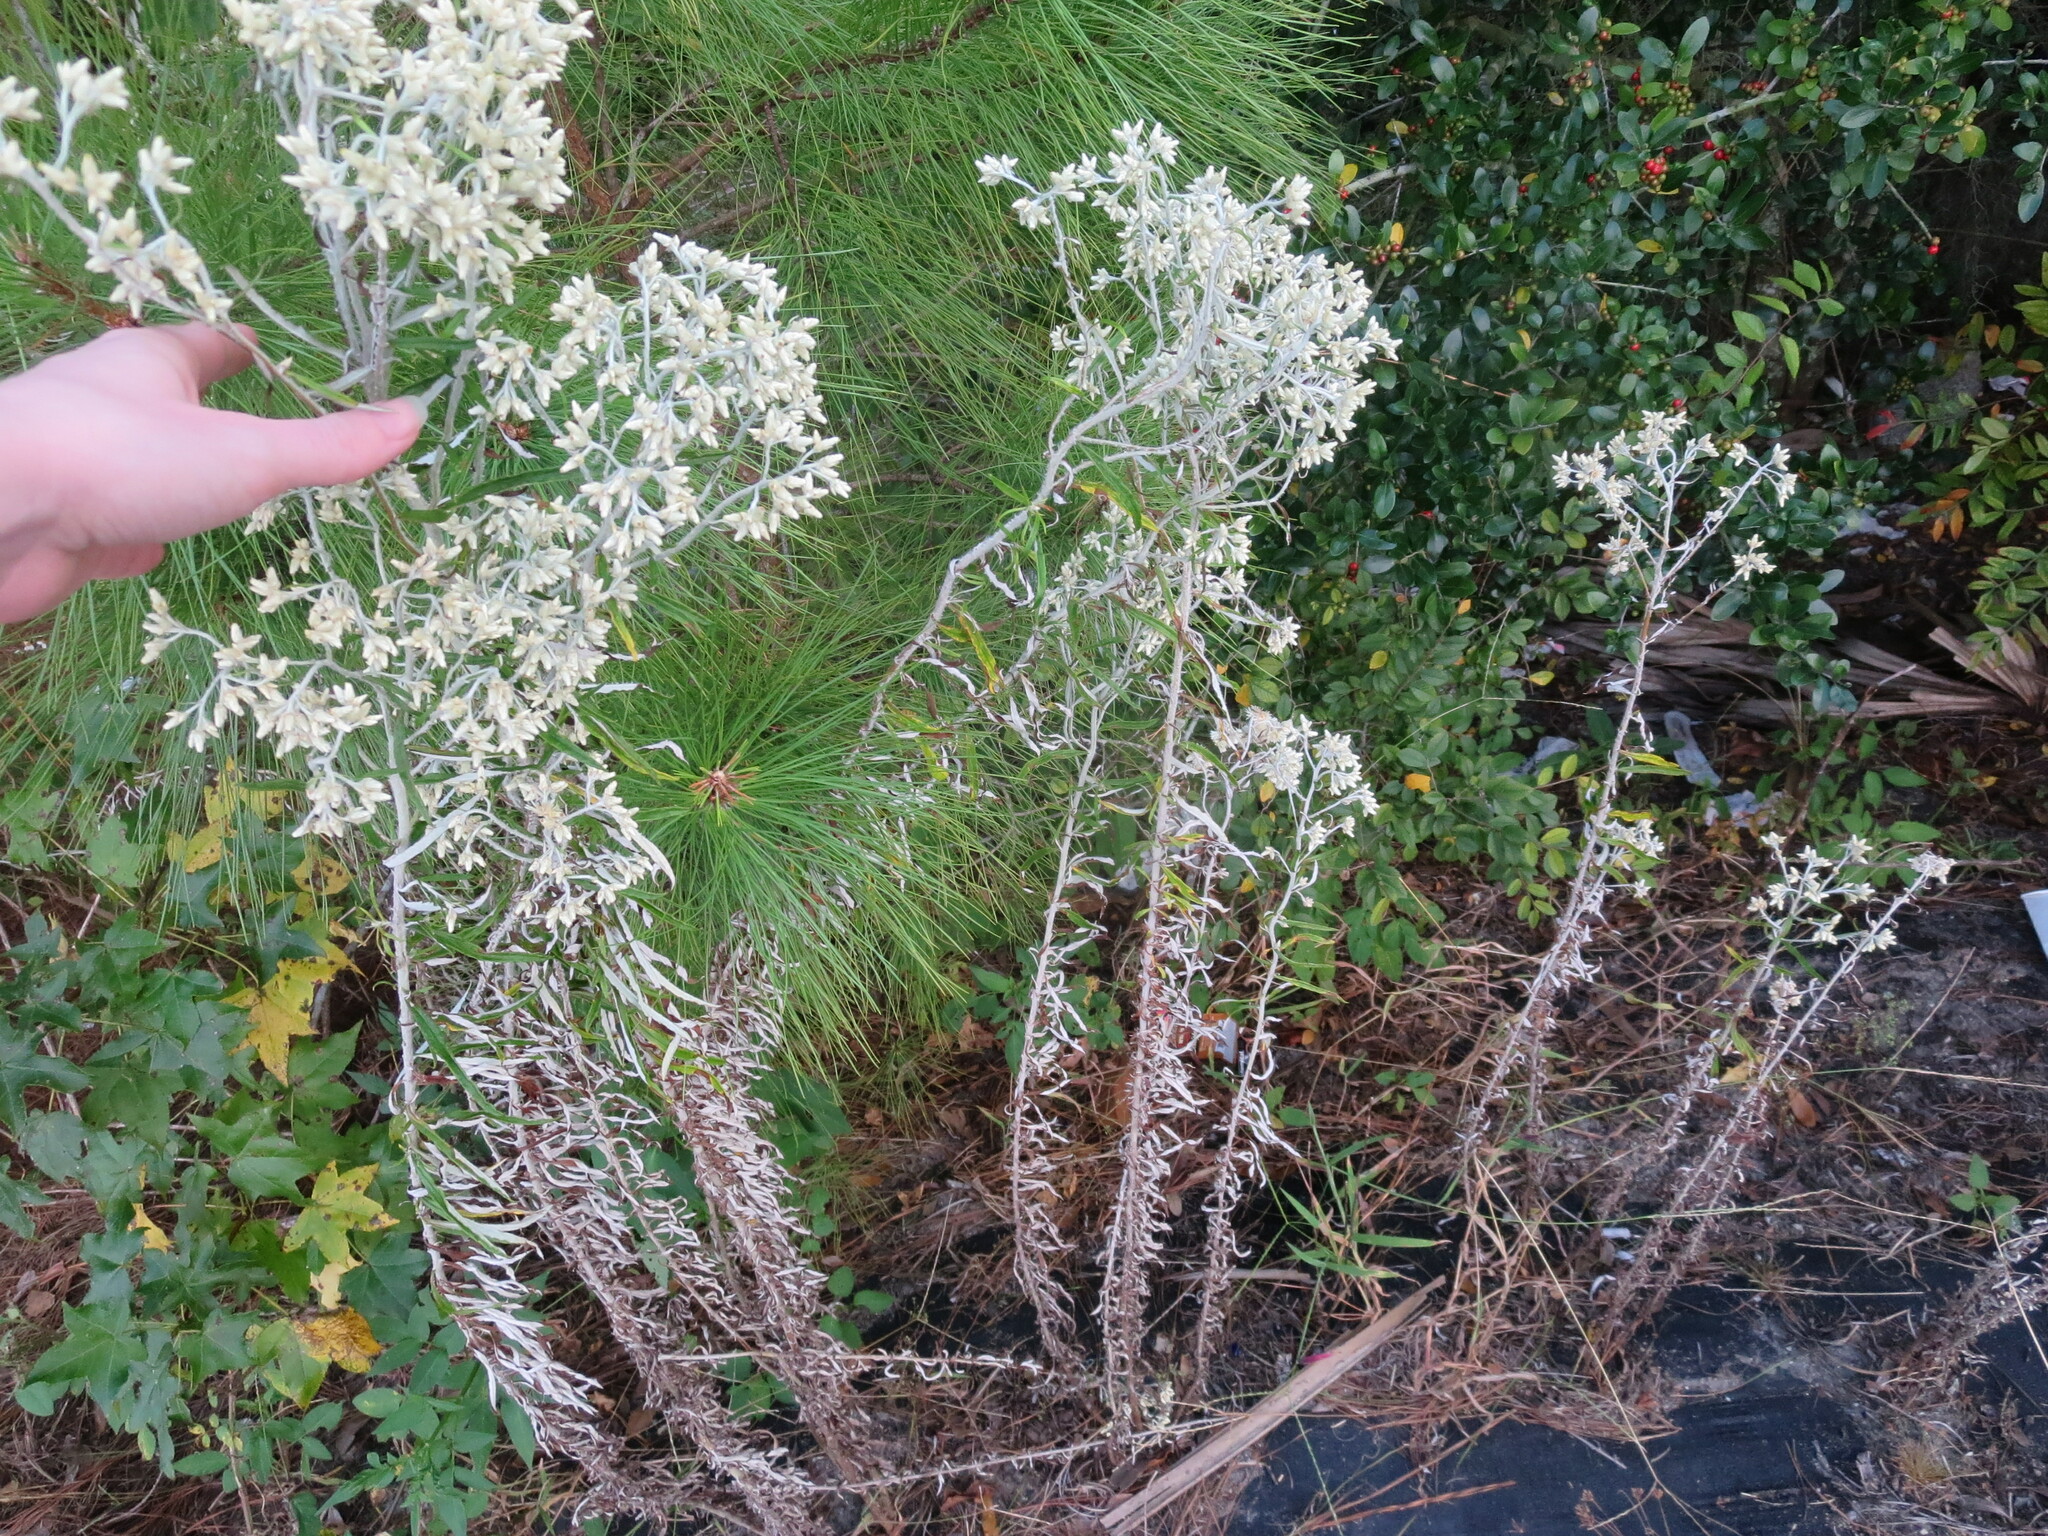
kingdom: Plantae
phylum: Tracheophyta
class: Magnoliopsida
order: Asterales
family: Asteraceae
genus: Pseudognaphalium
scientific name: Pseudognaphalium obtusifolium
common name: Eastern rabbit-tobacco
